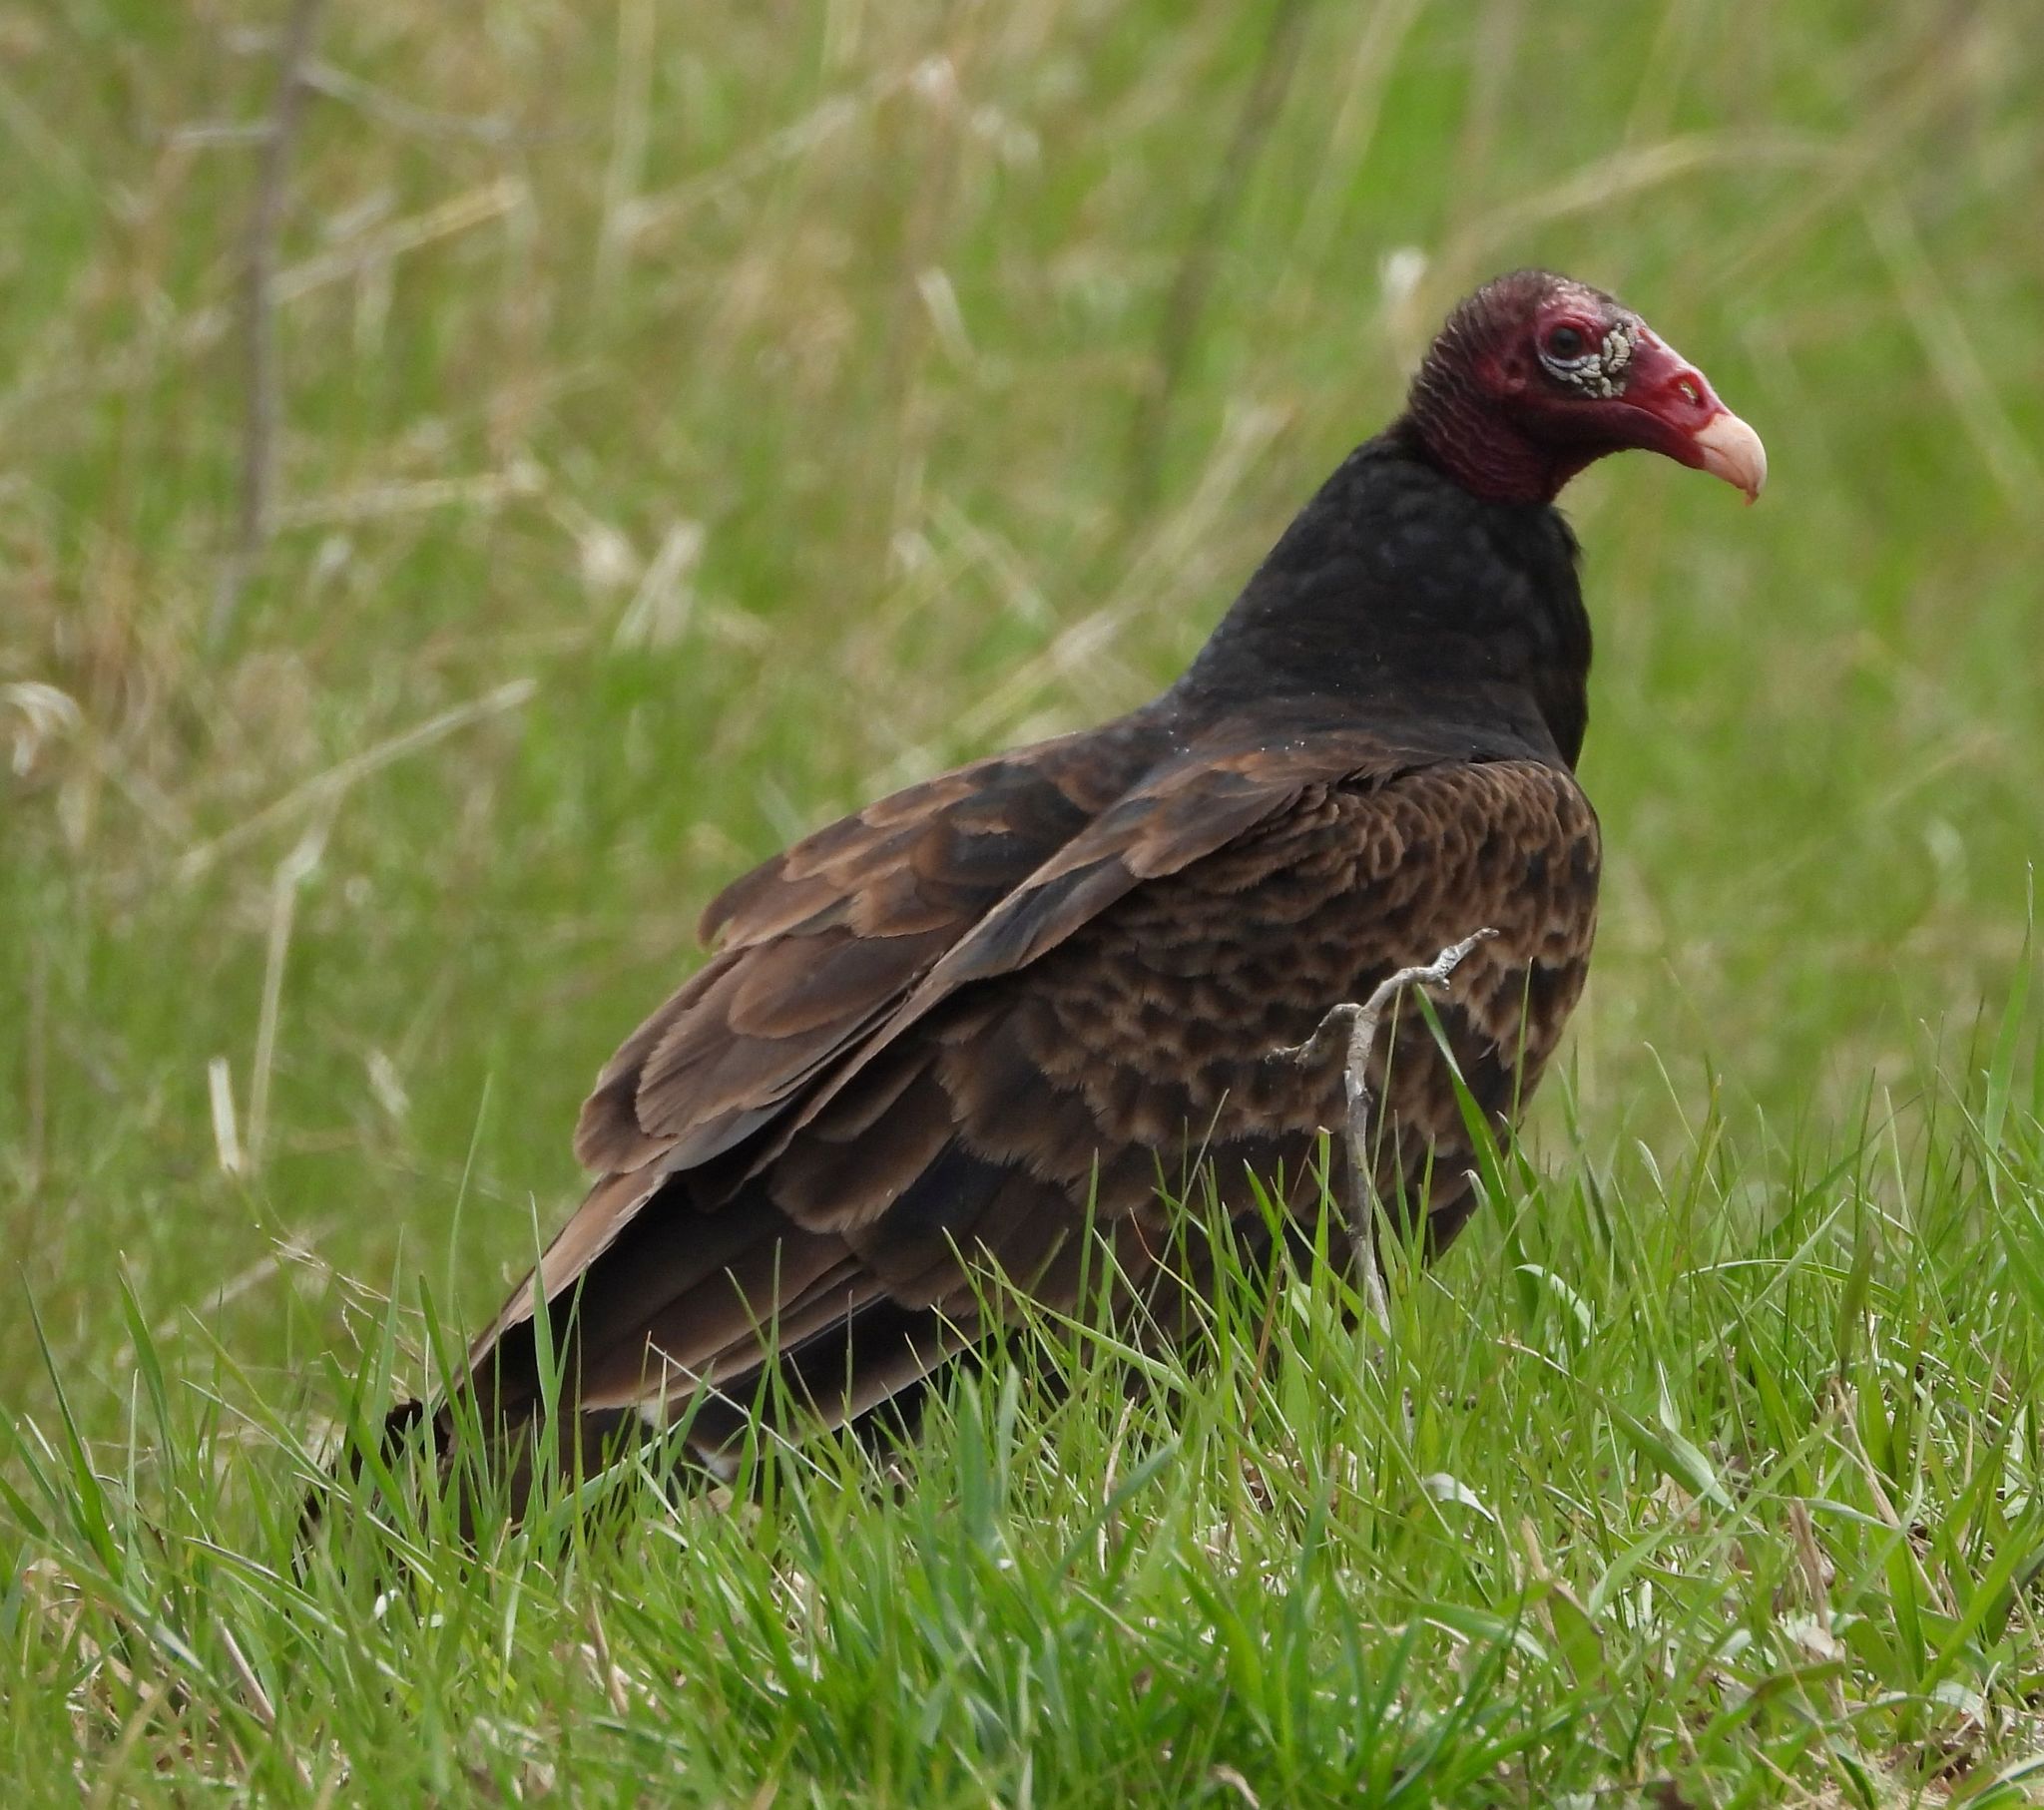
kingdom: Animalia
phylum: Chordata
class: Aves
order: Accipitriformes
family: Cathartidae
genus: Cathartes
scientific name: Cathartes aura
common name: Turkey vulture
